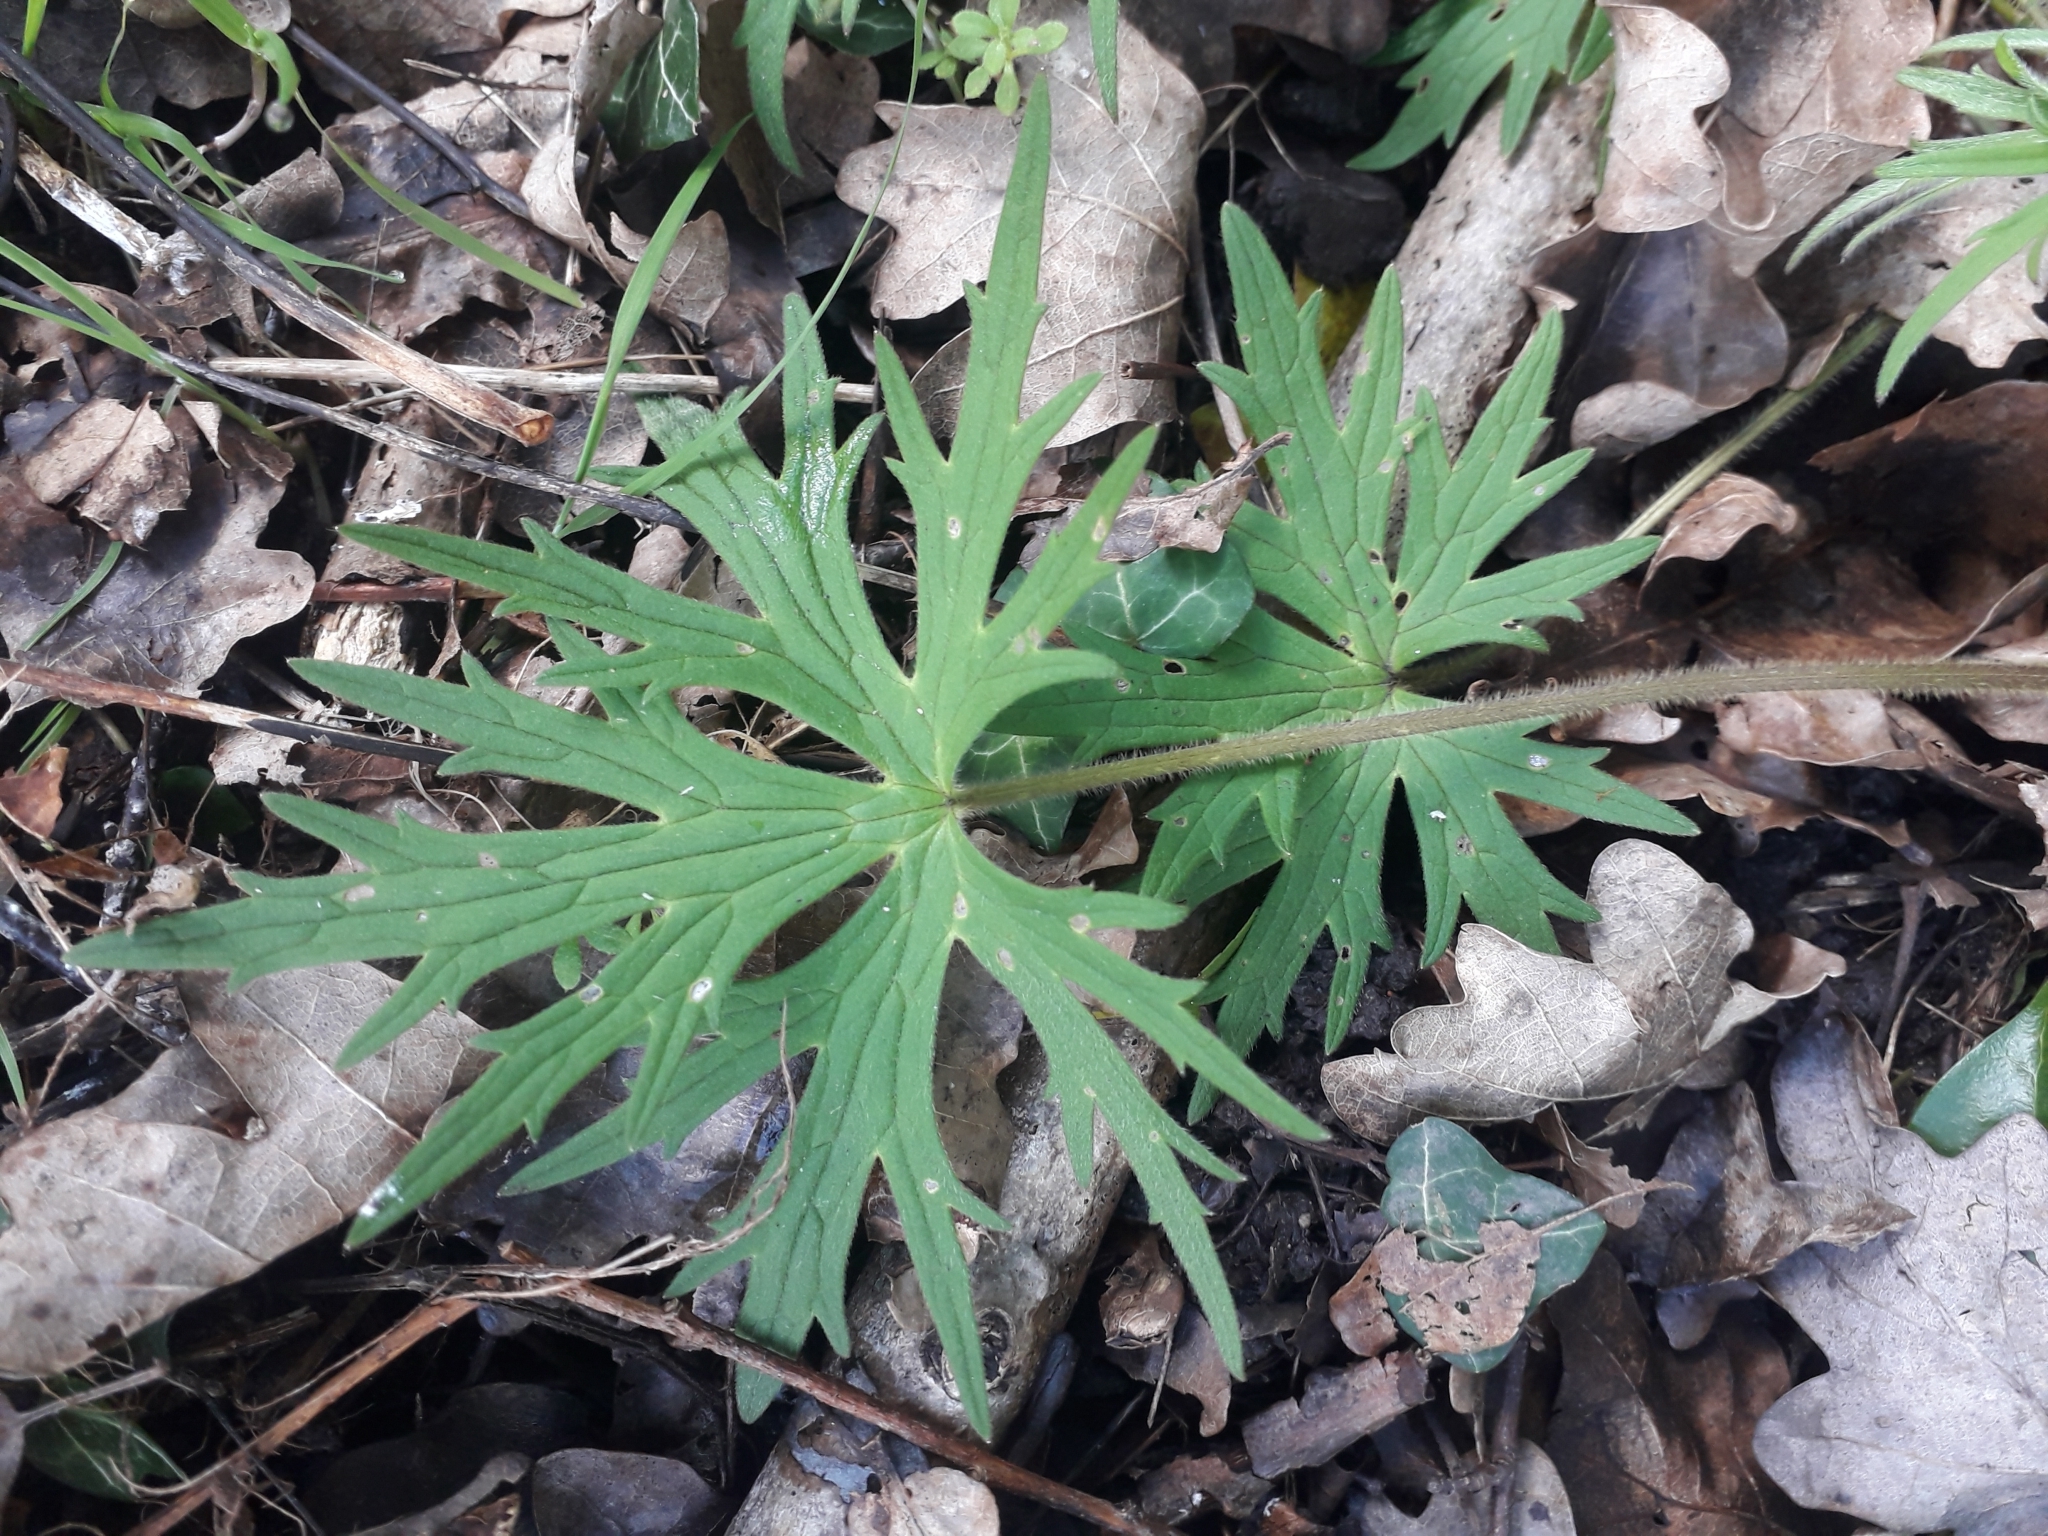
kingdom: Plantae
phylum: Tracheophyta
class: Magnoliopsida
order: Ranunculales
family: Ranunculaceae
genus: Ranunculus
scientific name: Ranunculus acris
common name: Meadow buttercup
